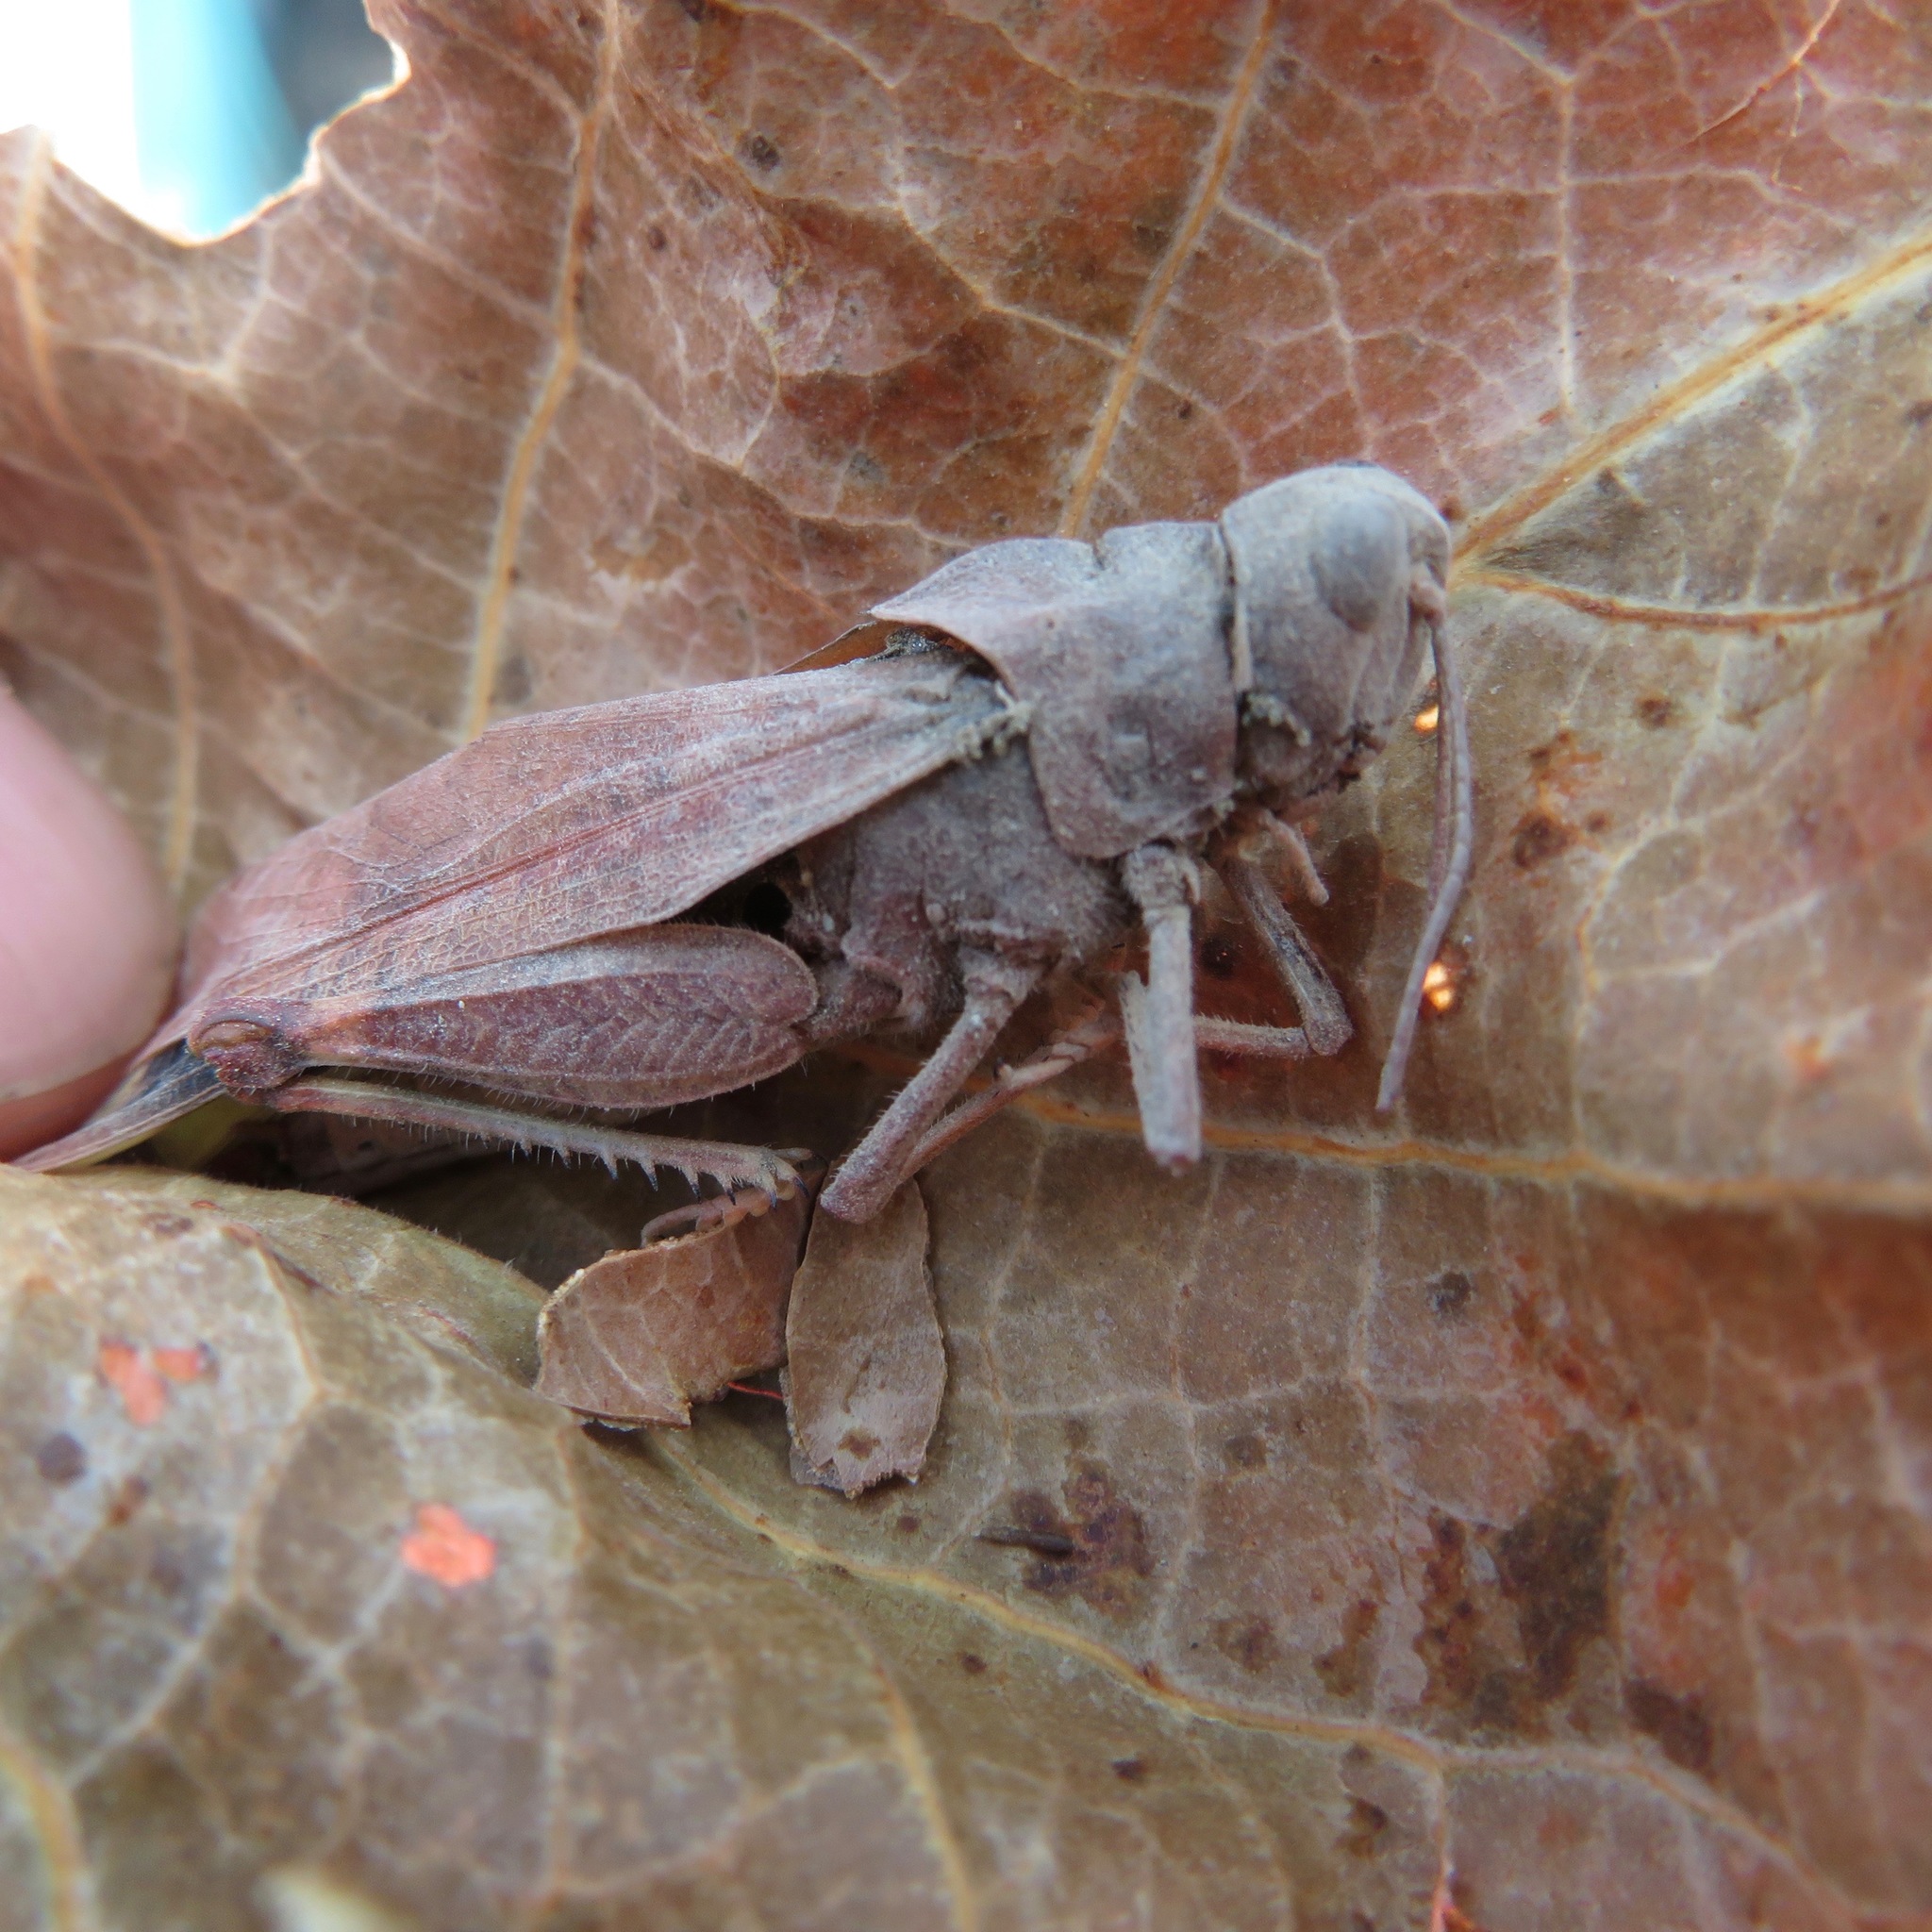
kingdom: Animalia
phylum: Arthropoda
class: Insecta
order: Orthoptera
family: Acrididae
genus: Dissosteira
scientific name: Dissosteira carolina
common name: Carolina grasshopper
